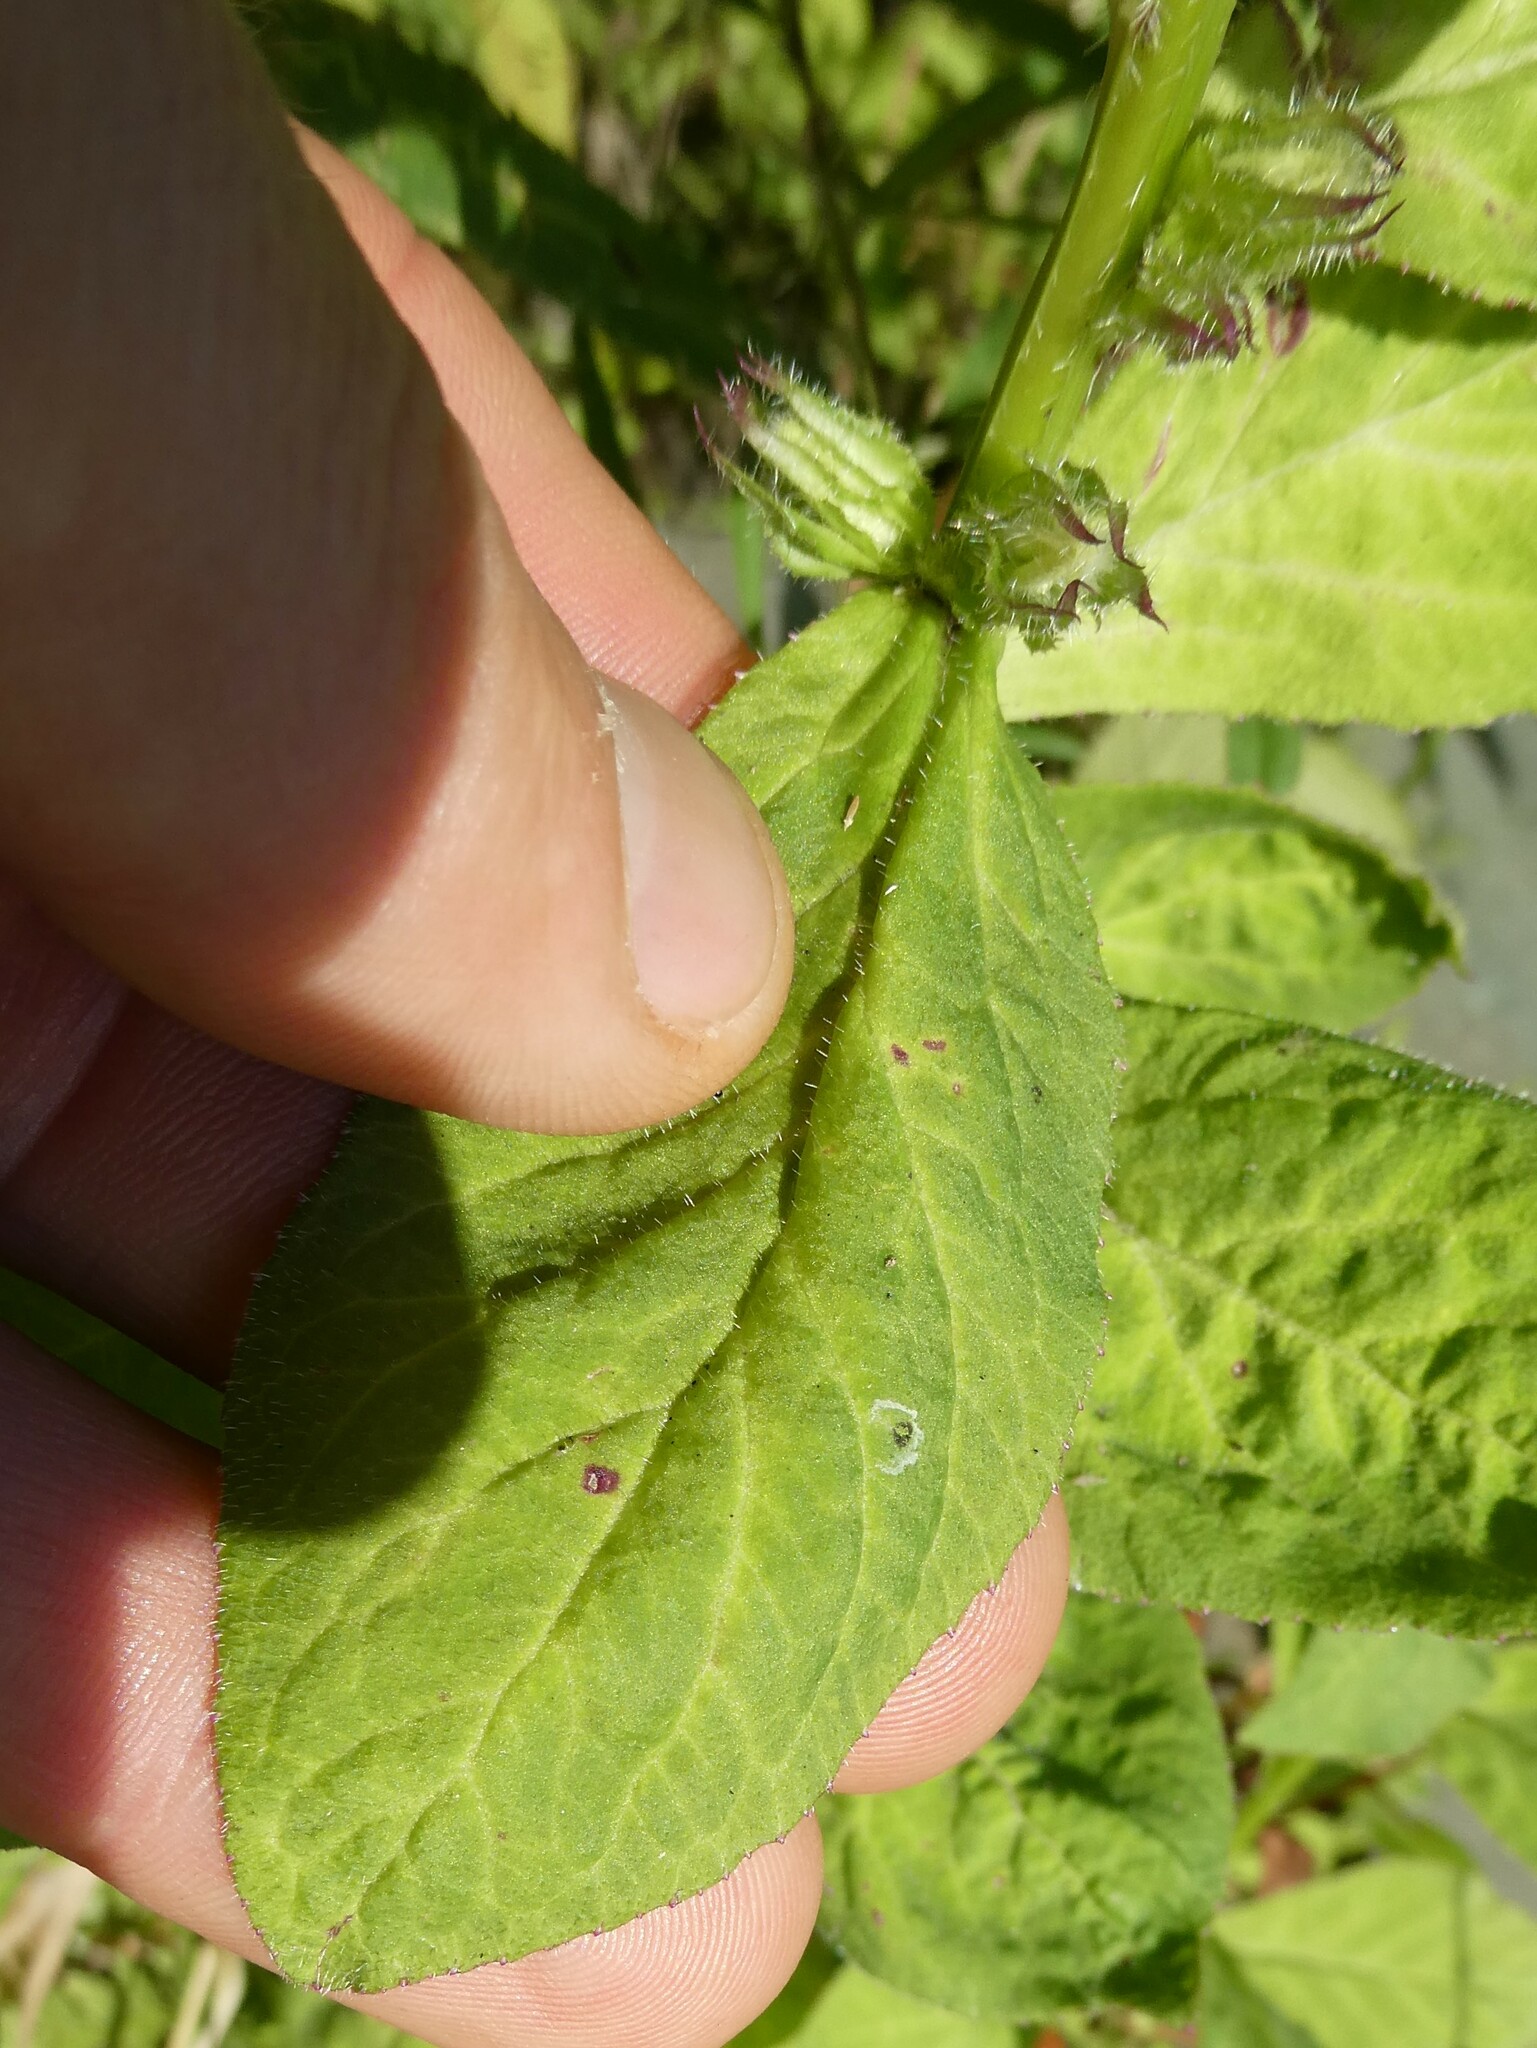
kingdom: Plantae
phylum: Tracheophyta
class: Magnoliopsida
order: Asterales
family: Campanulaceae
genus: Lobelia
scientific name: Lobelia siphilitica
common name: Great lobelia
